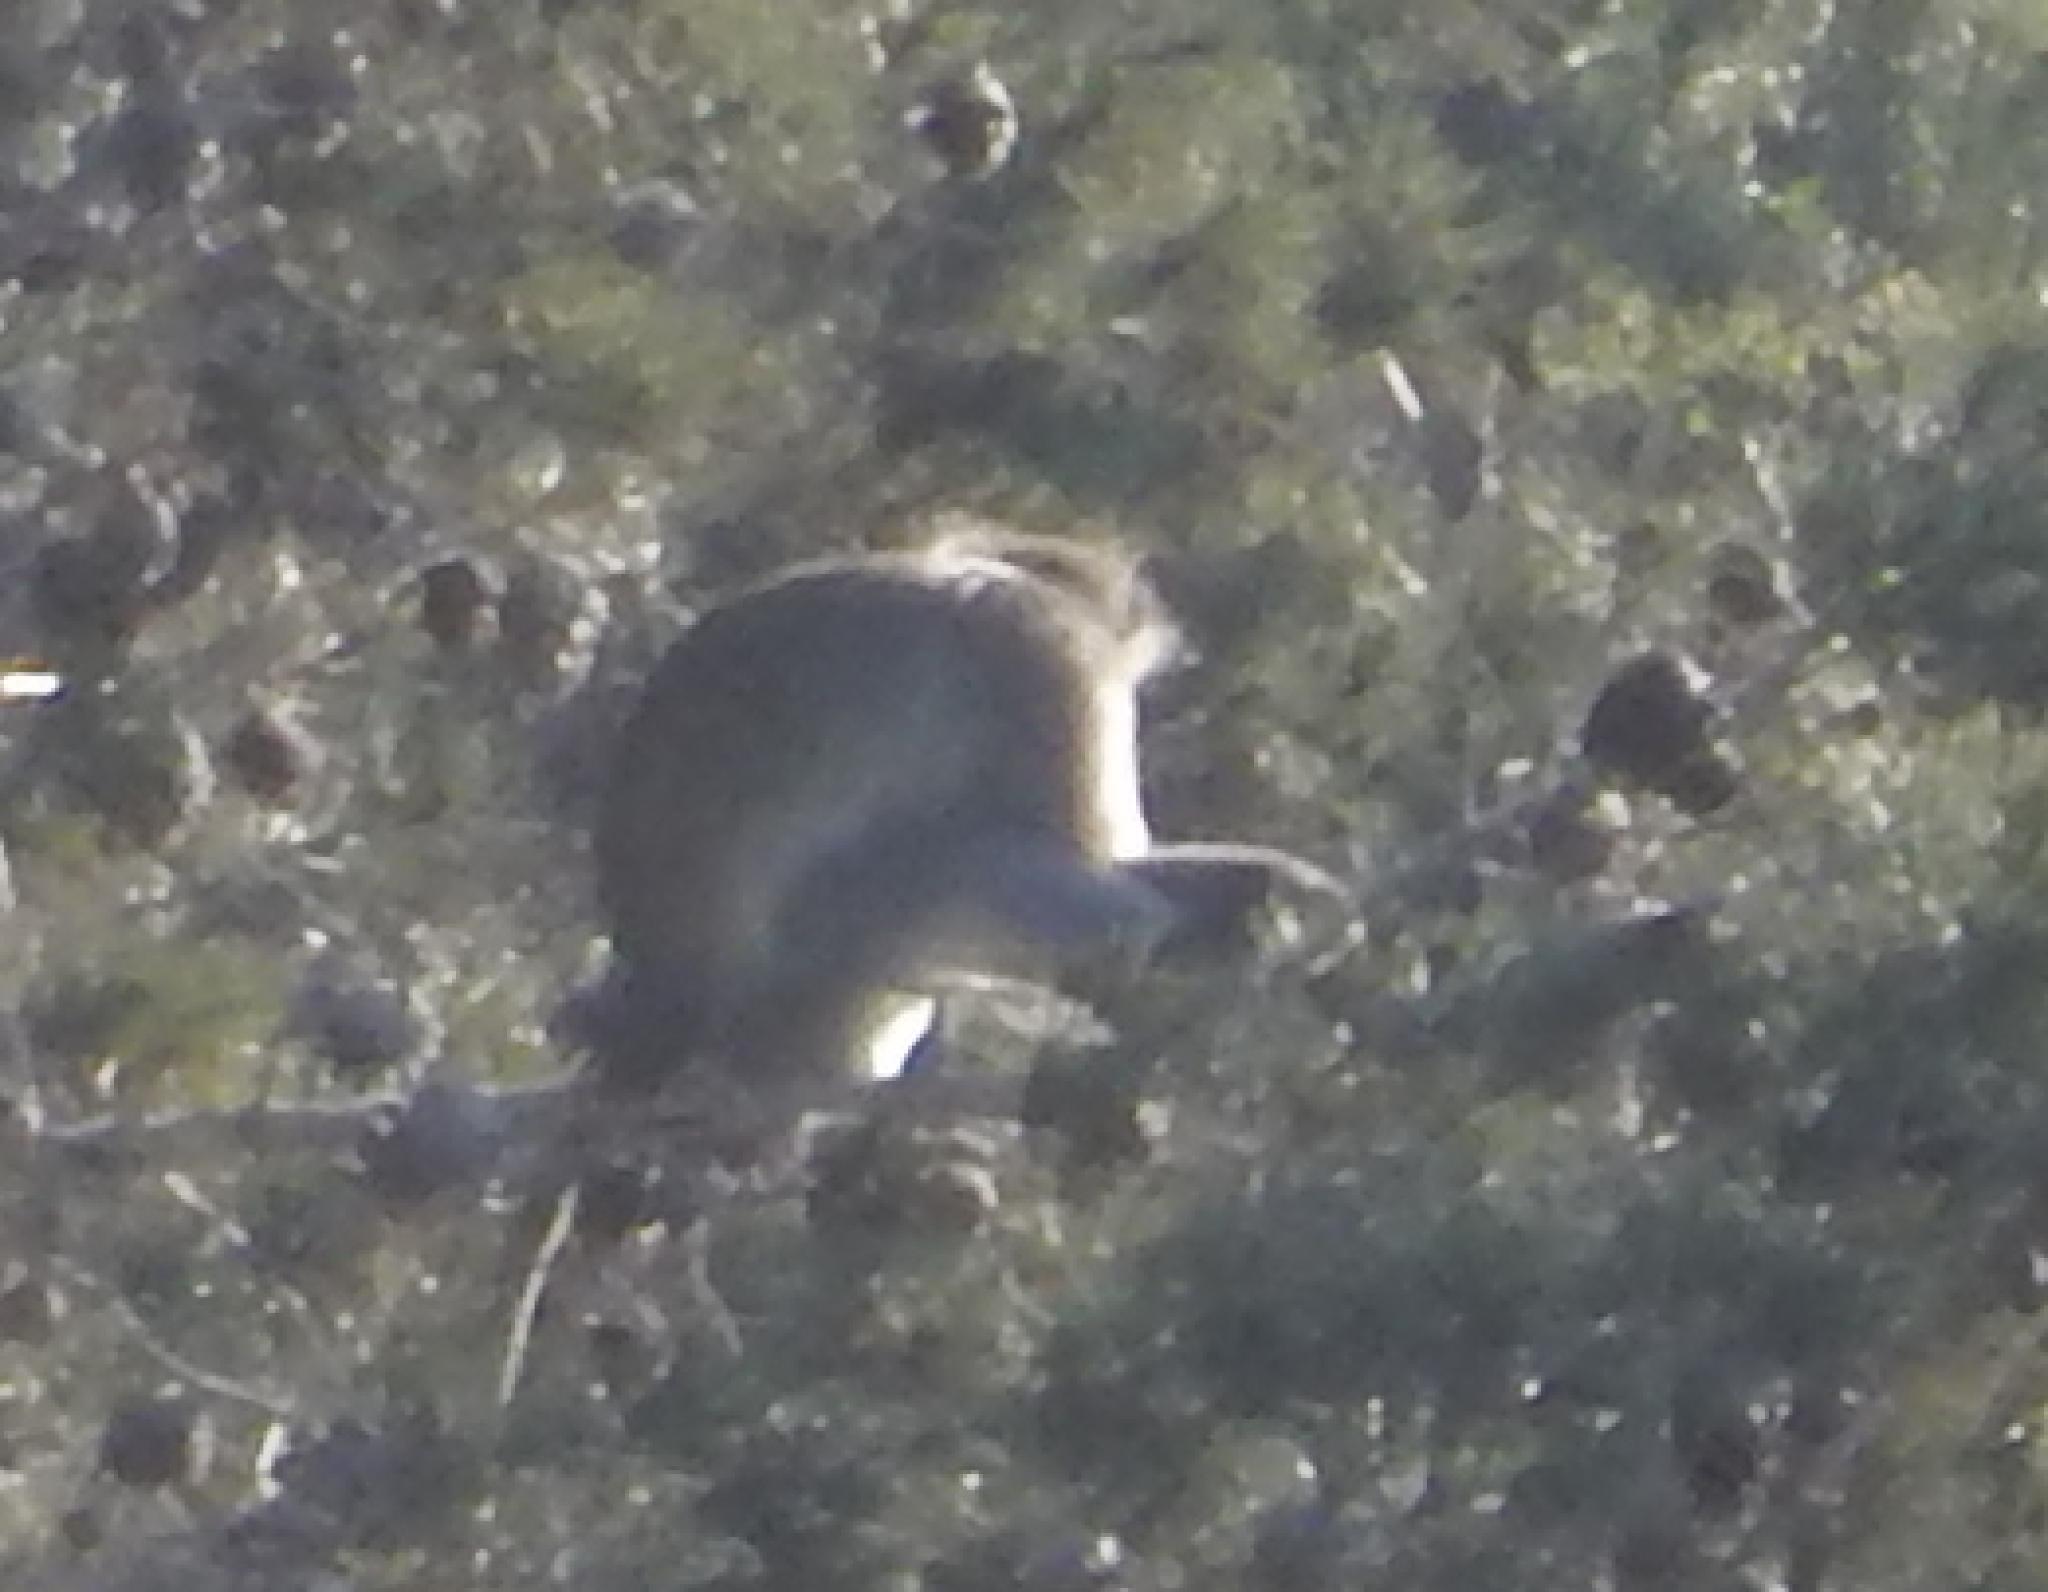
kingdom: Animalia
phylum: Chordata
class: Mammalia
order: Primates
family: Cercopithecidae
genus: Chlorocebus
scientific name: Chlorocebus pygerythrus
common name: Vervet monkey
